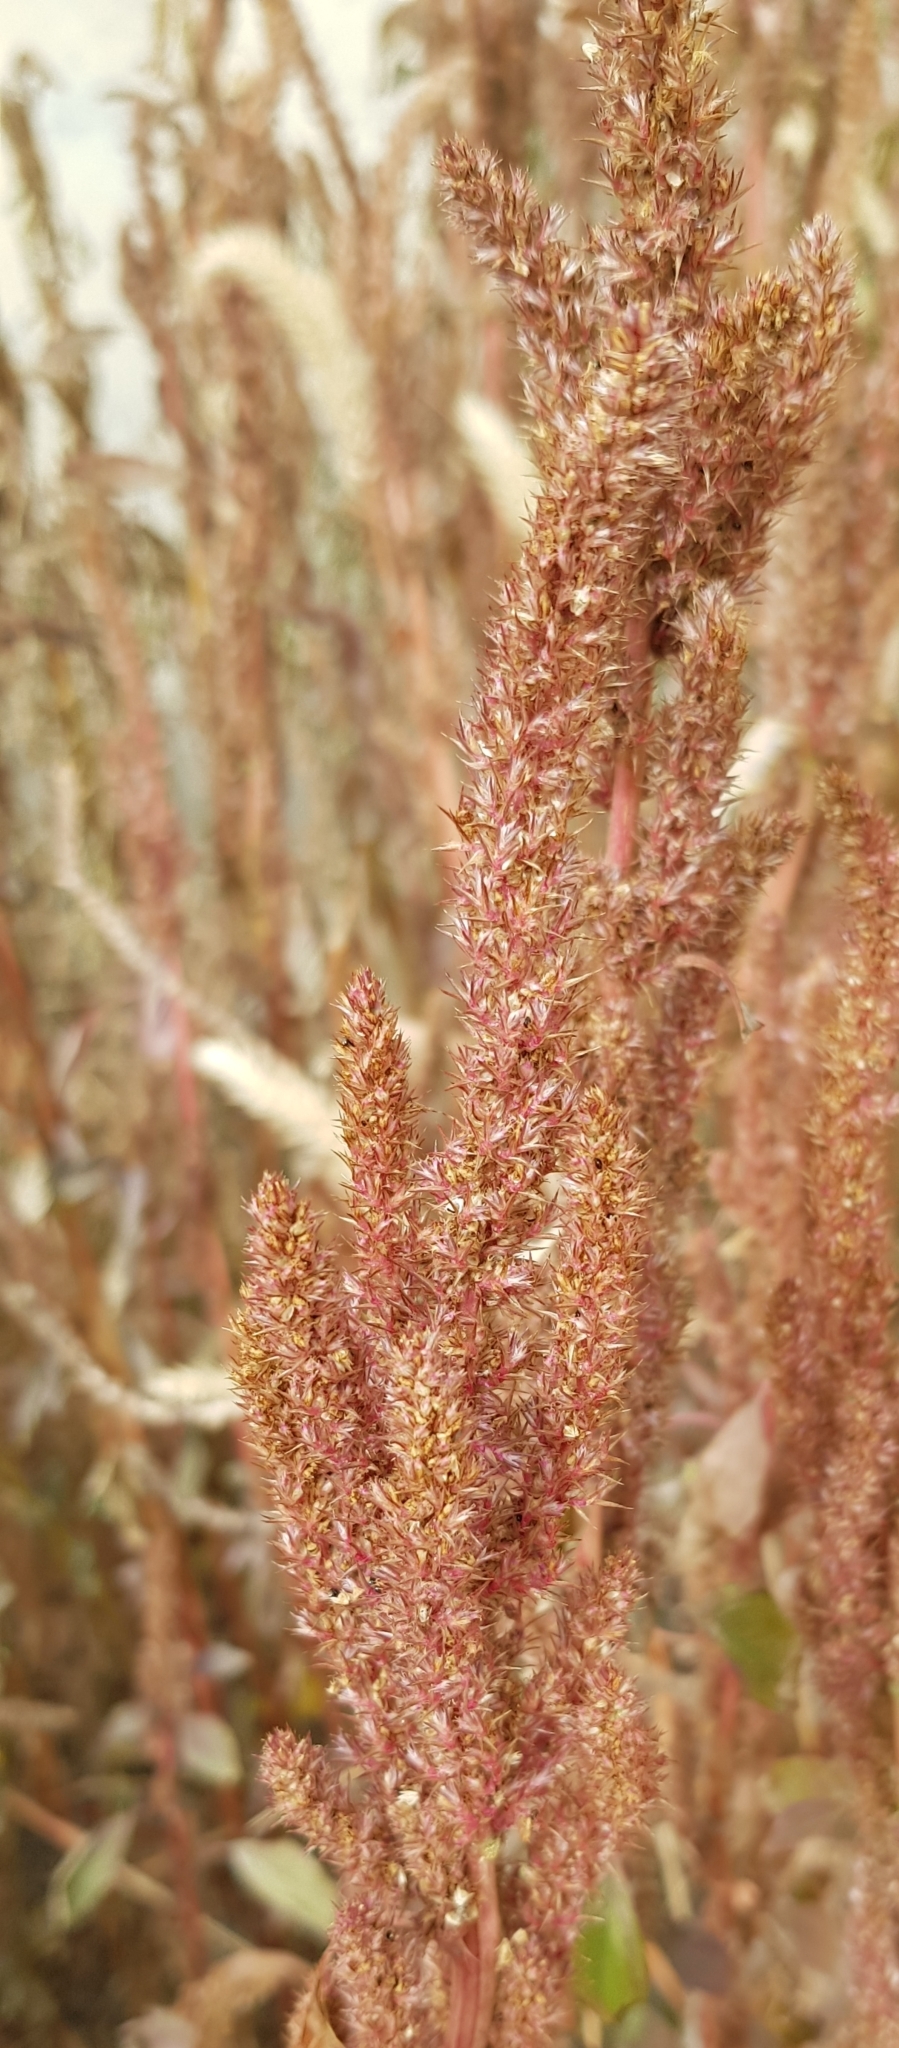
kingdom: Plantae
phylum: Tracheophyta
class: Magnoliopsida
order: Caryophyllales
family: Amaranthaceae
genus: Amaranthus
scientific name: Amaranthus cruentus
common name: Purple amaranth
